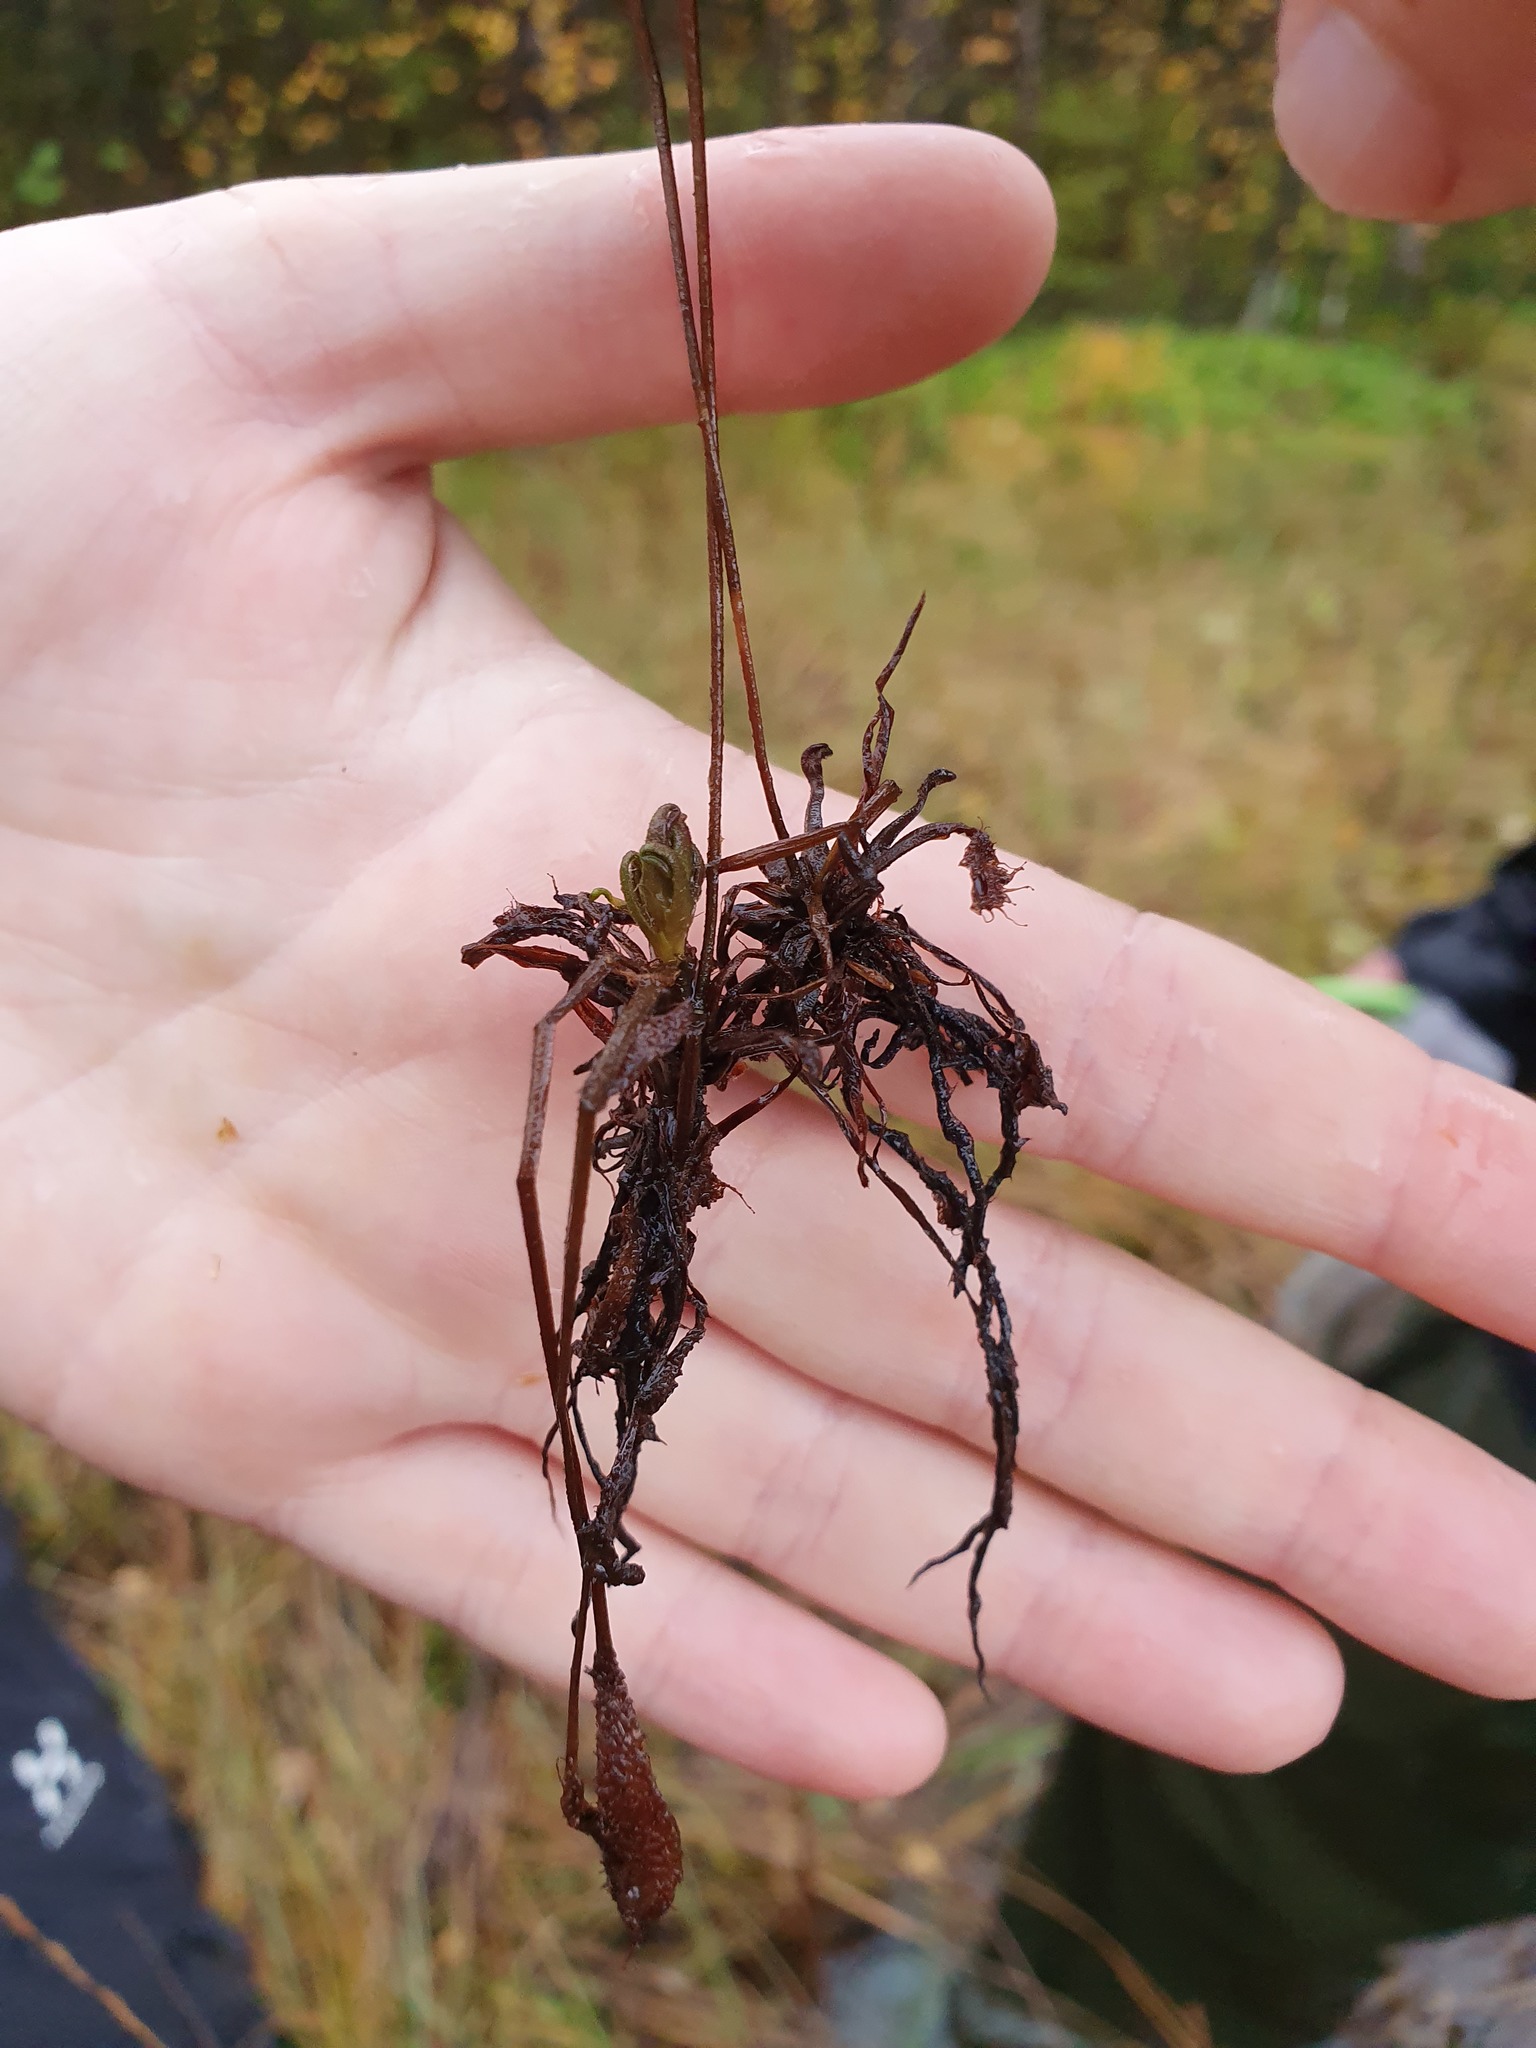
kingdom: Plantae
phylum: Tracheophyta
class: Magnoliopsida
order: Caryophyllales
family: Droseraceae
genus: Drosera
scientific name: Drosera anglica
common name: Great sundew
